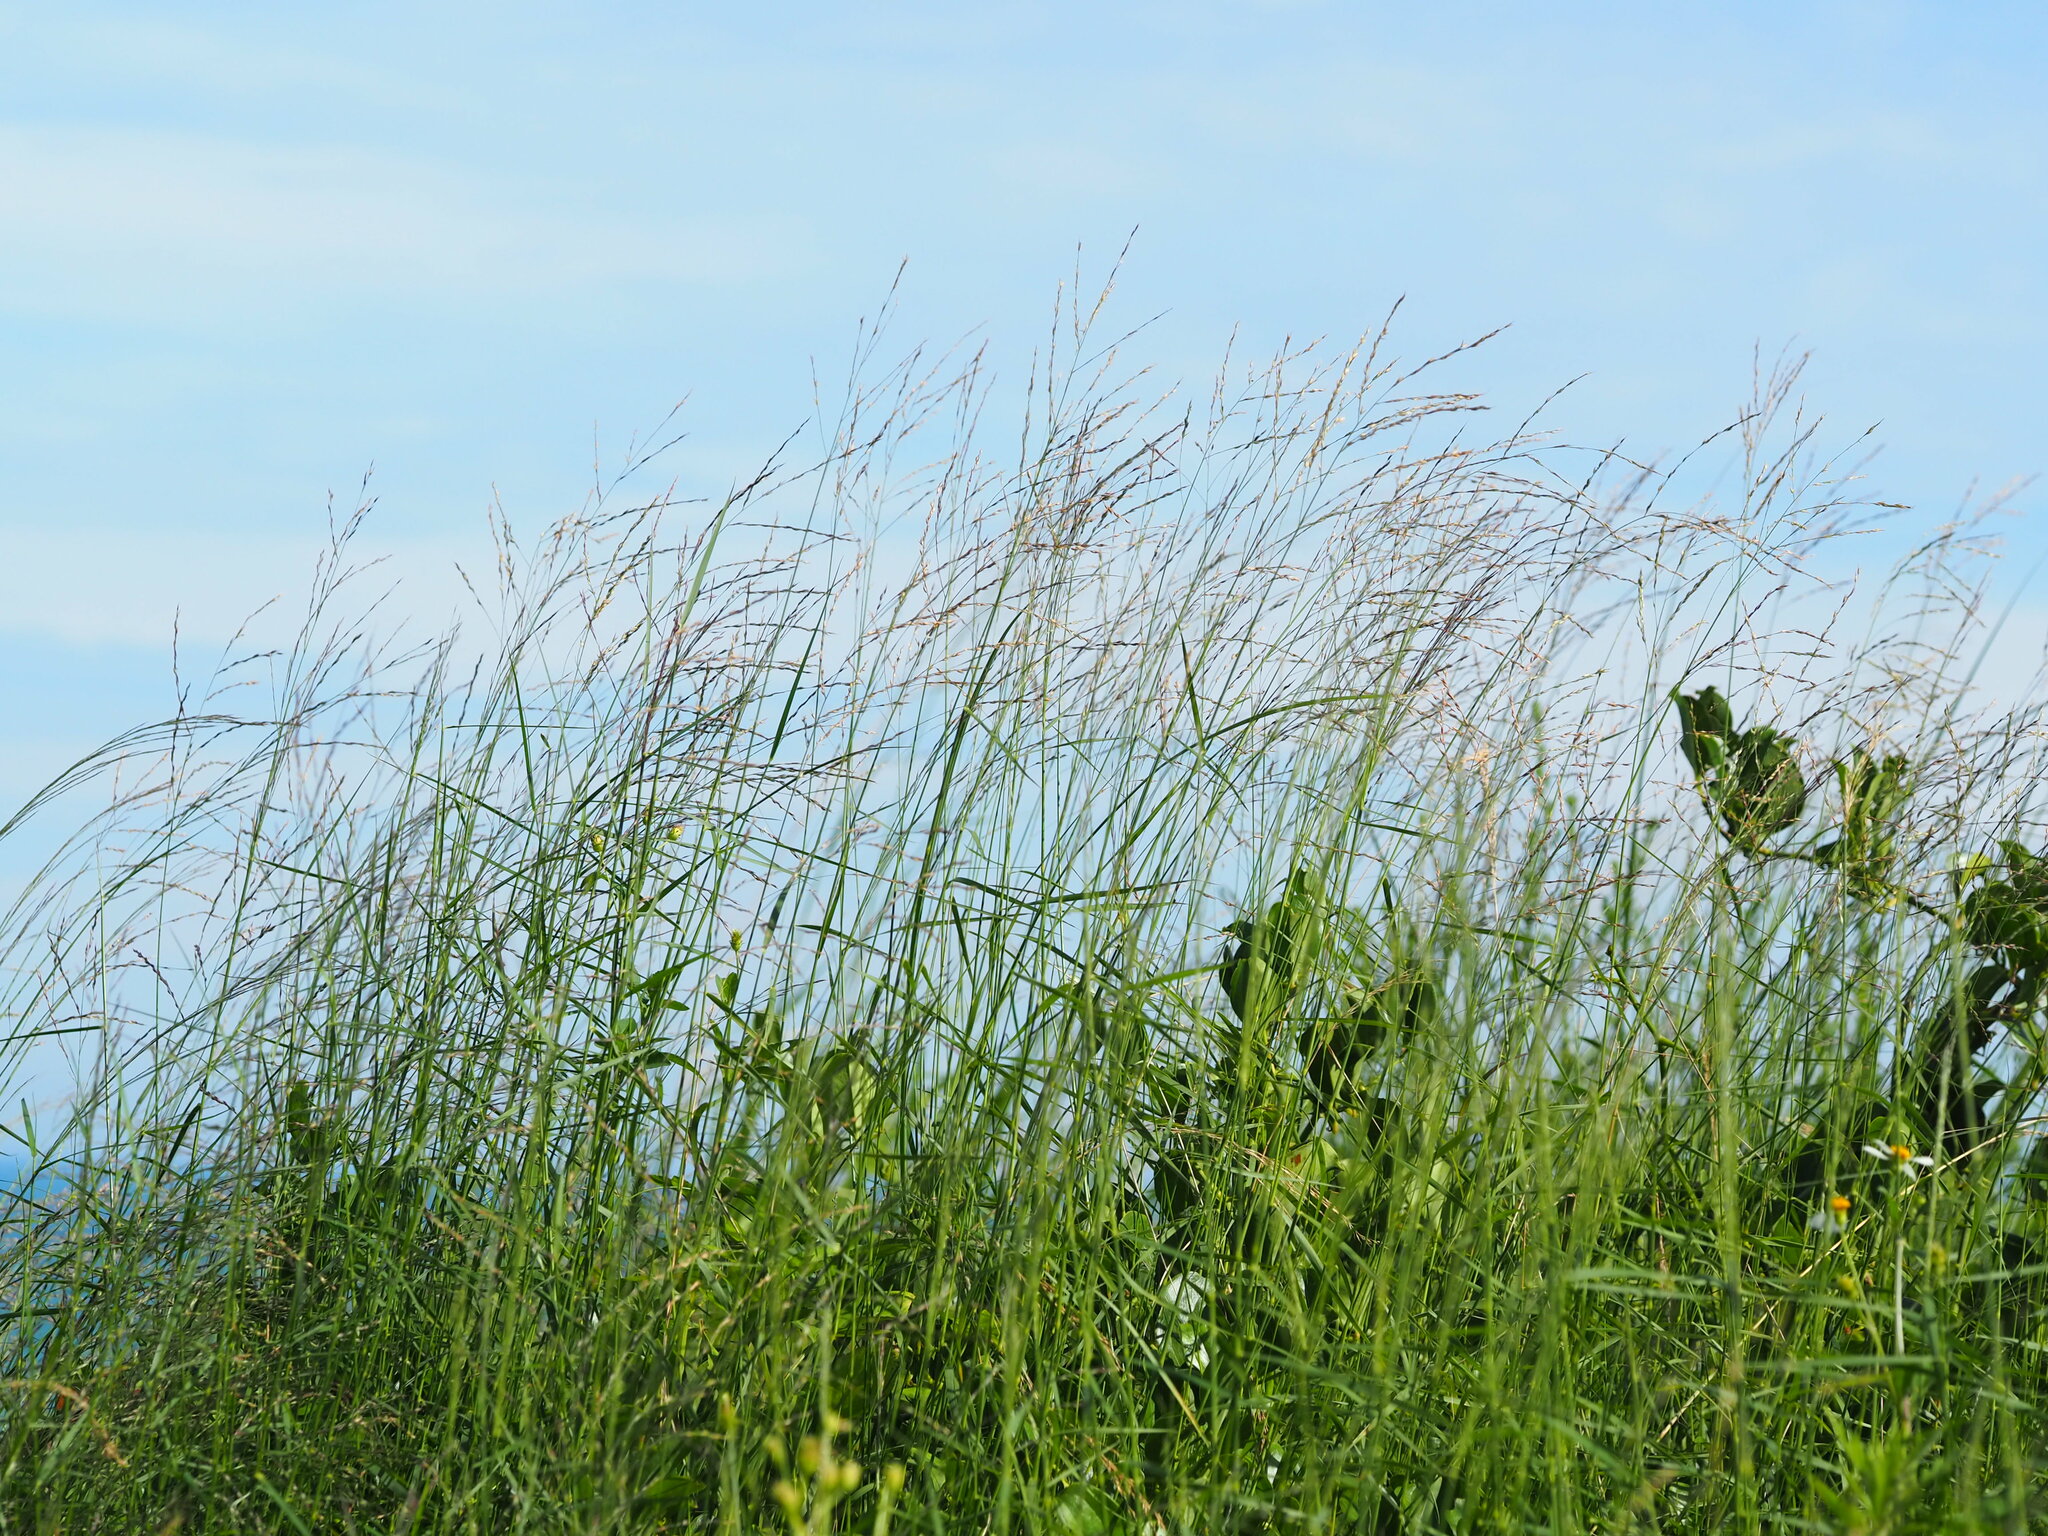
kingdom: Plantae
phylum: Tracheophyta
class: Liliopsida
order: Poales
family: Poaceae
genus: Arundinella
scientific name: Arundinella setosa
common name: Reed grass
